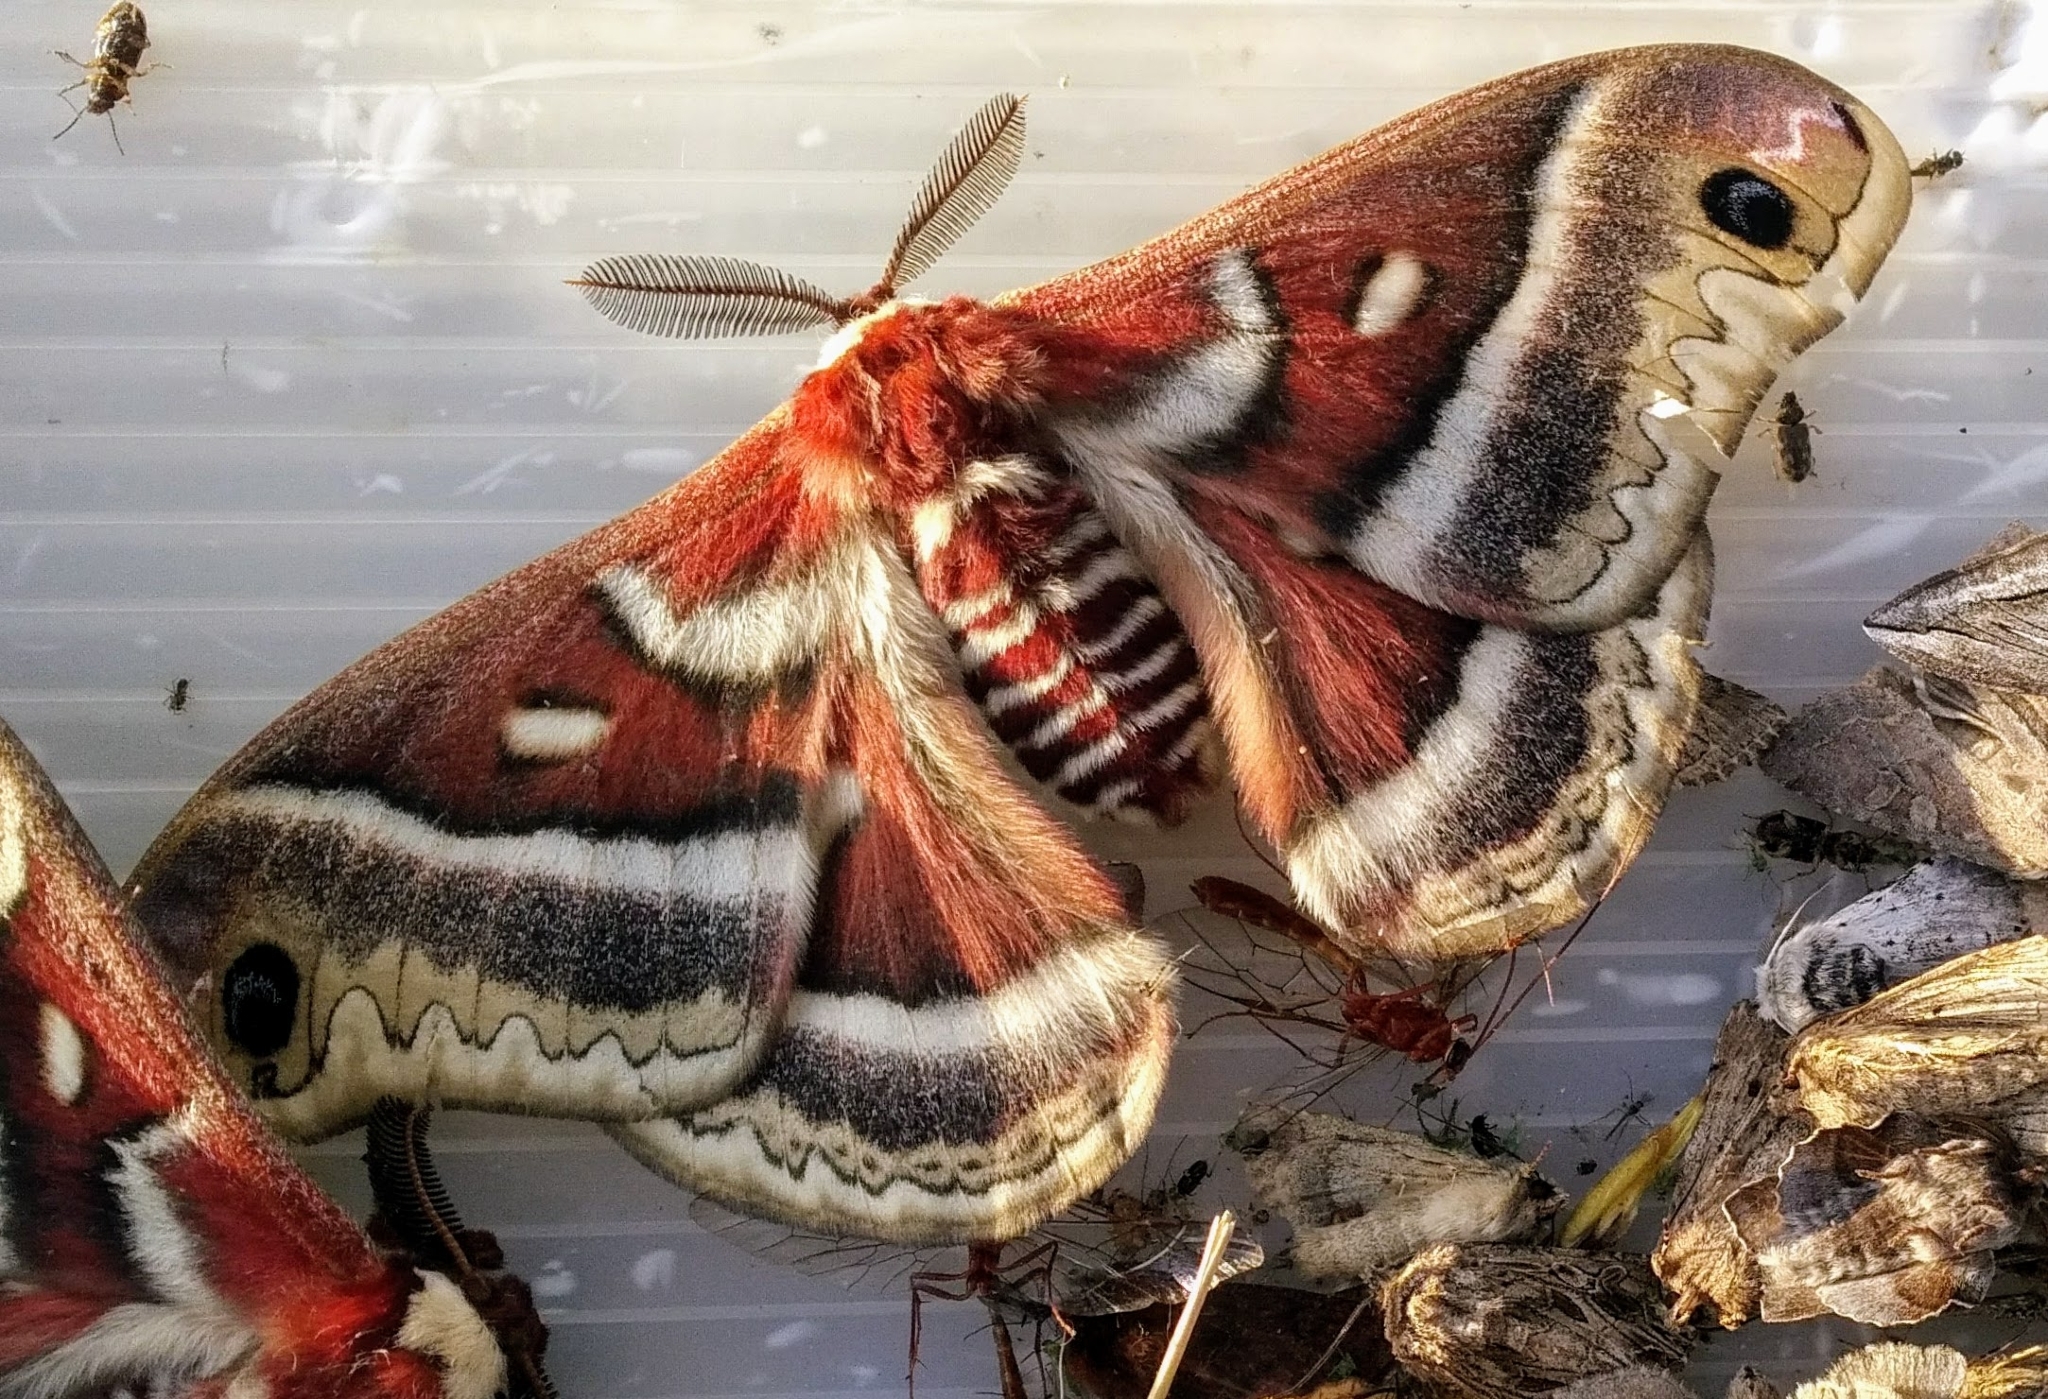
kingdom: Animalia
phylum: Arthropoda
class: Insecta
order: Lepidoptera
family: Saturniidae
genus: Hyalophora
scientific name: Hyalophora gloveri
